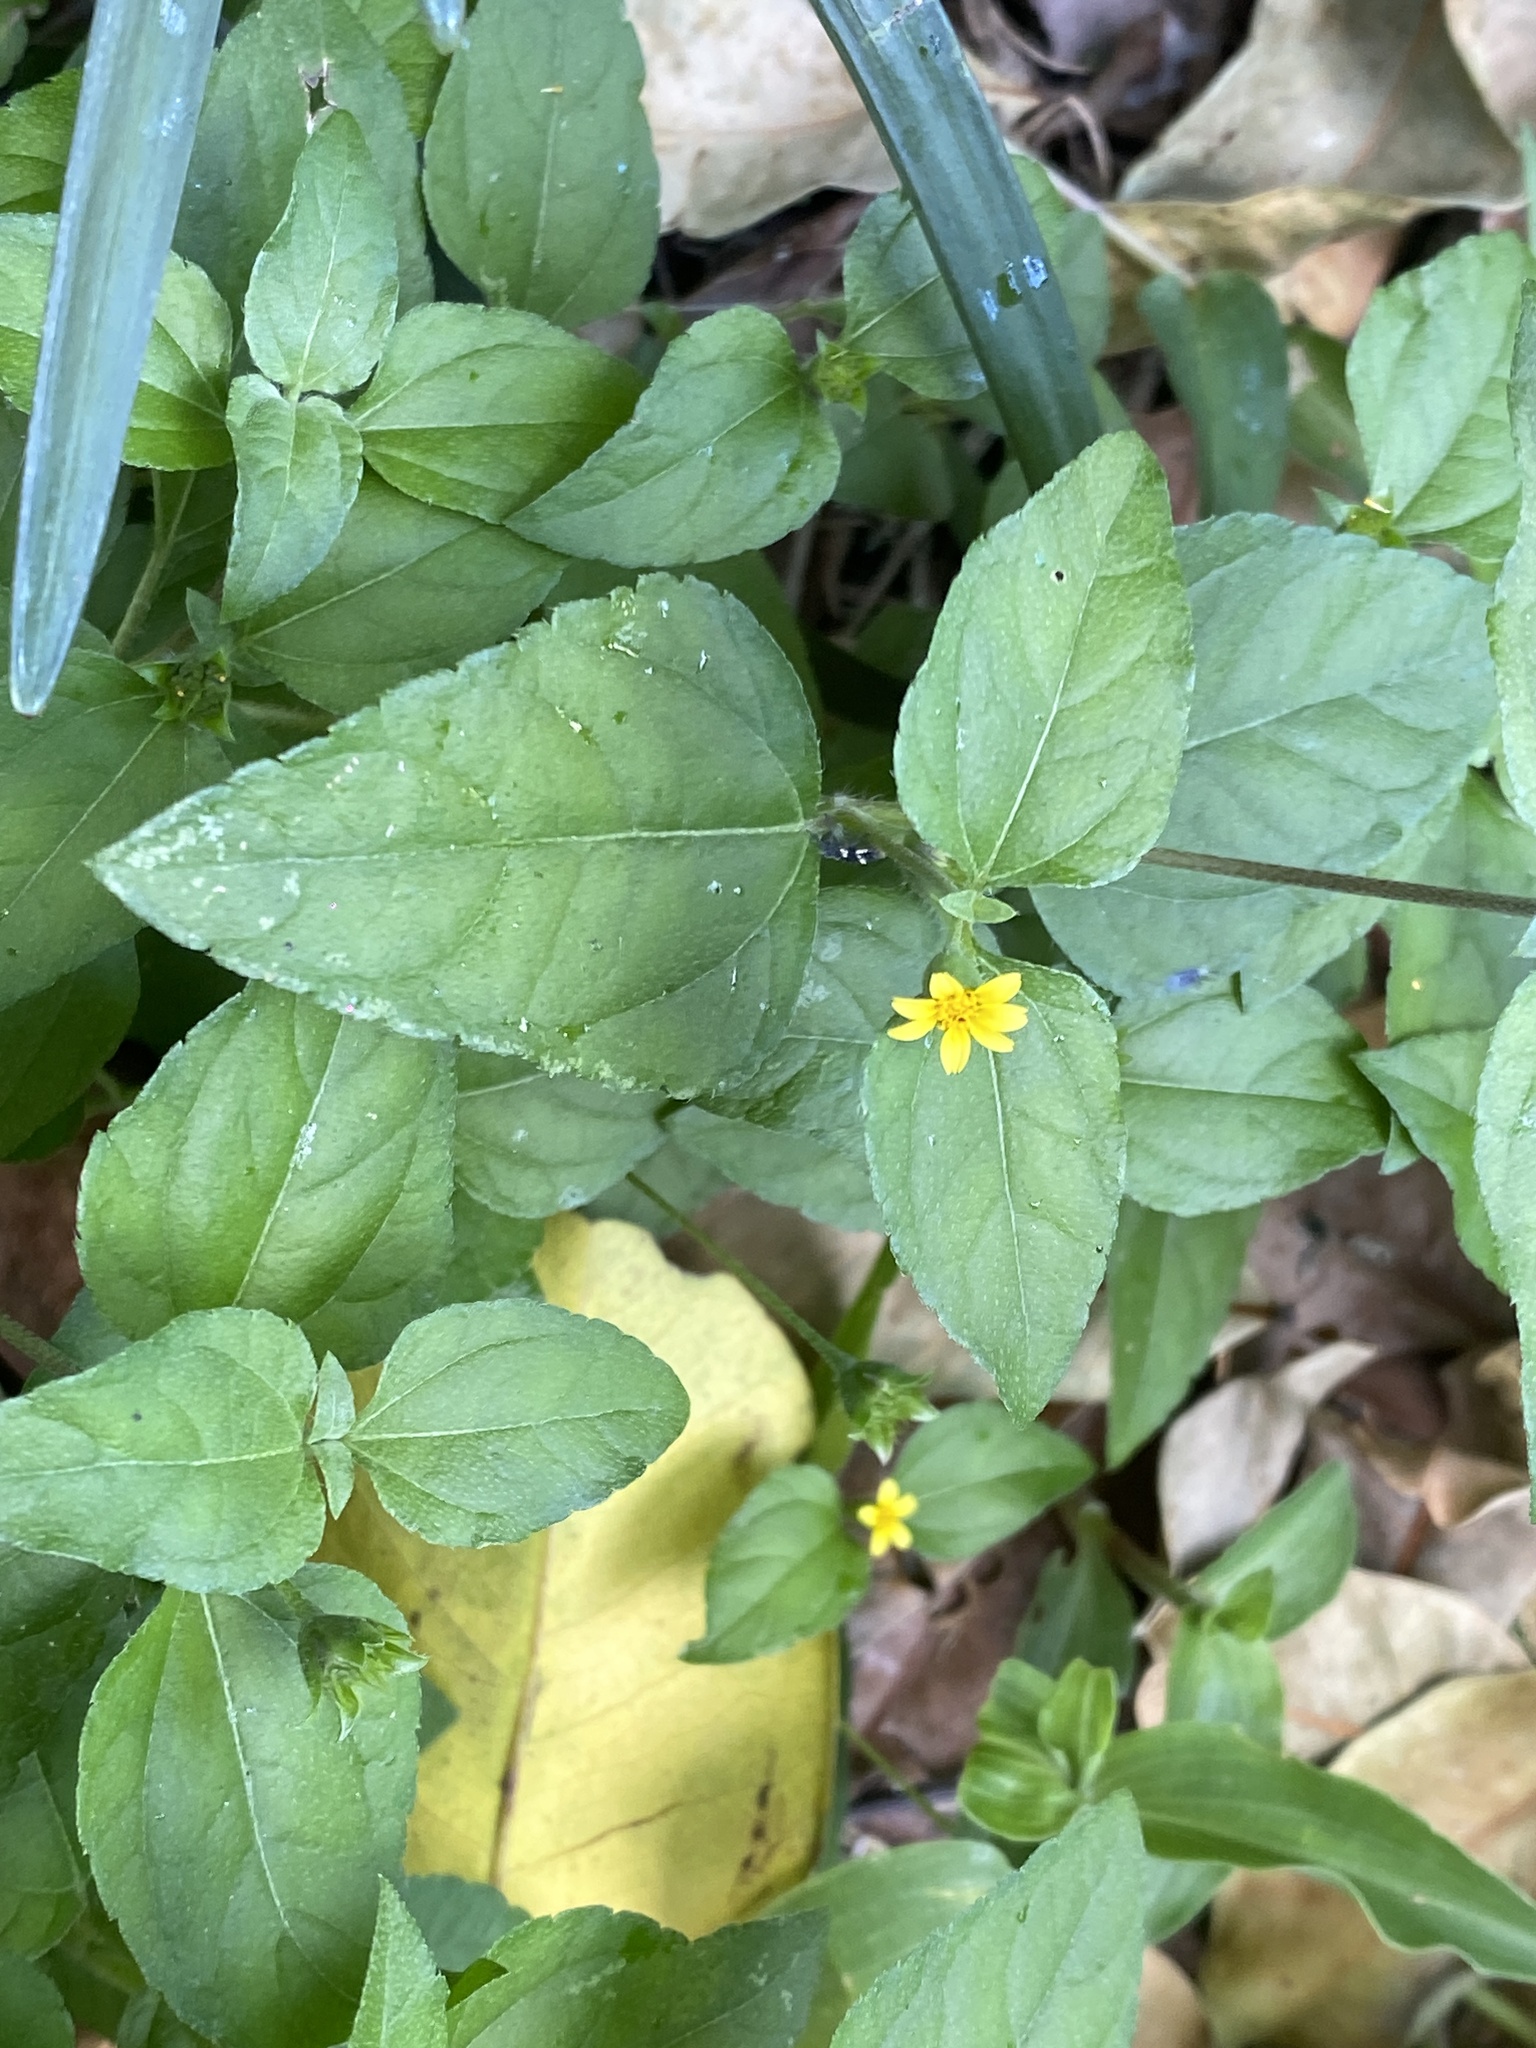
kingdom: Plantae
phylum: Tracheophyta
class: Magnoliopsida
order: Asterales
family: Asteraceae
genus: Calyptocarpus
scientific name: Calyptocarpus vialis
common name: Straggler daisy
